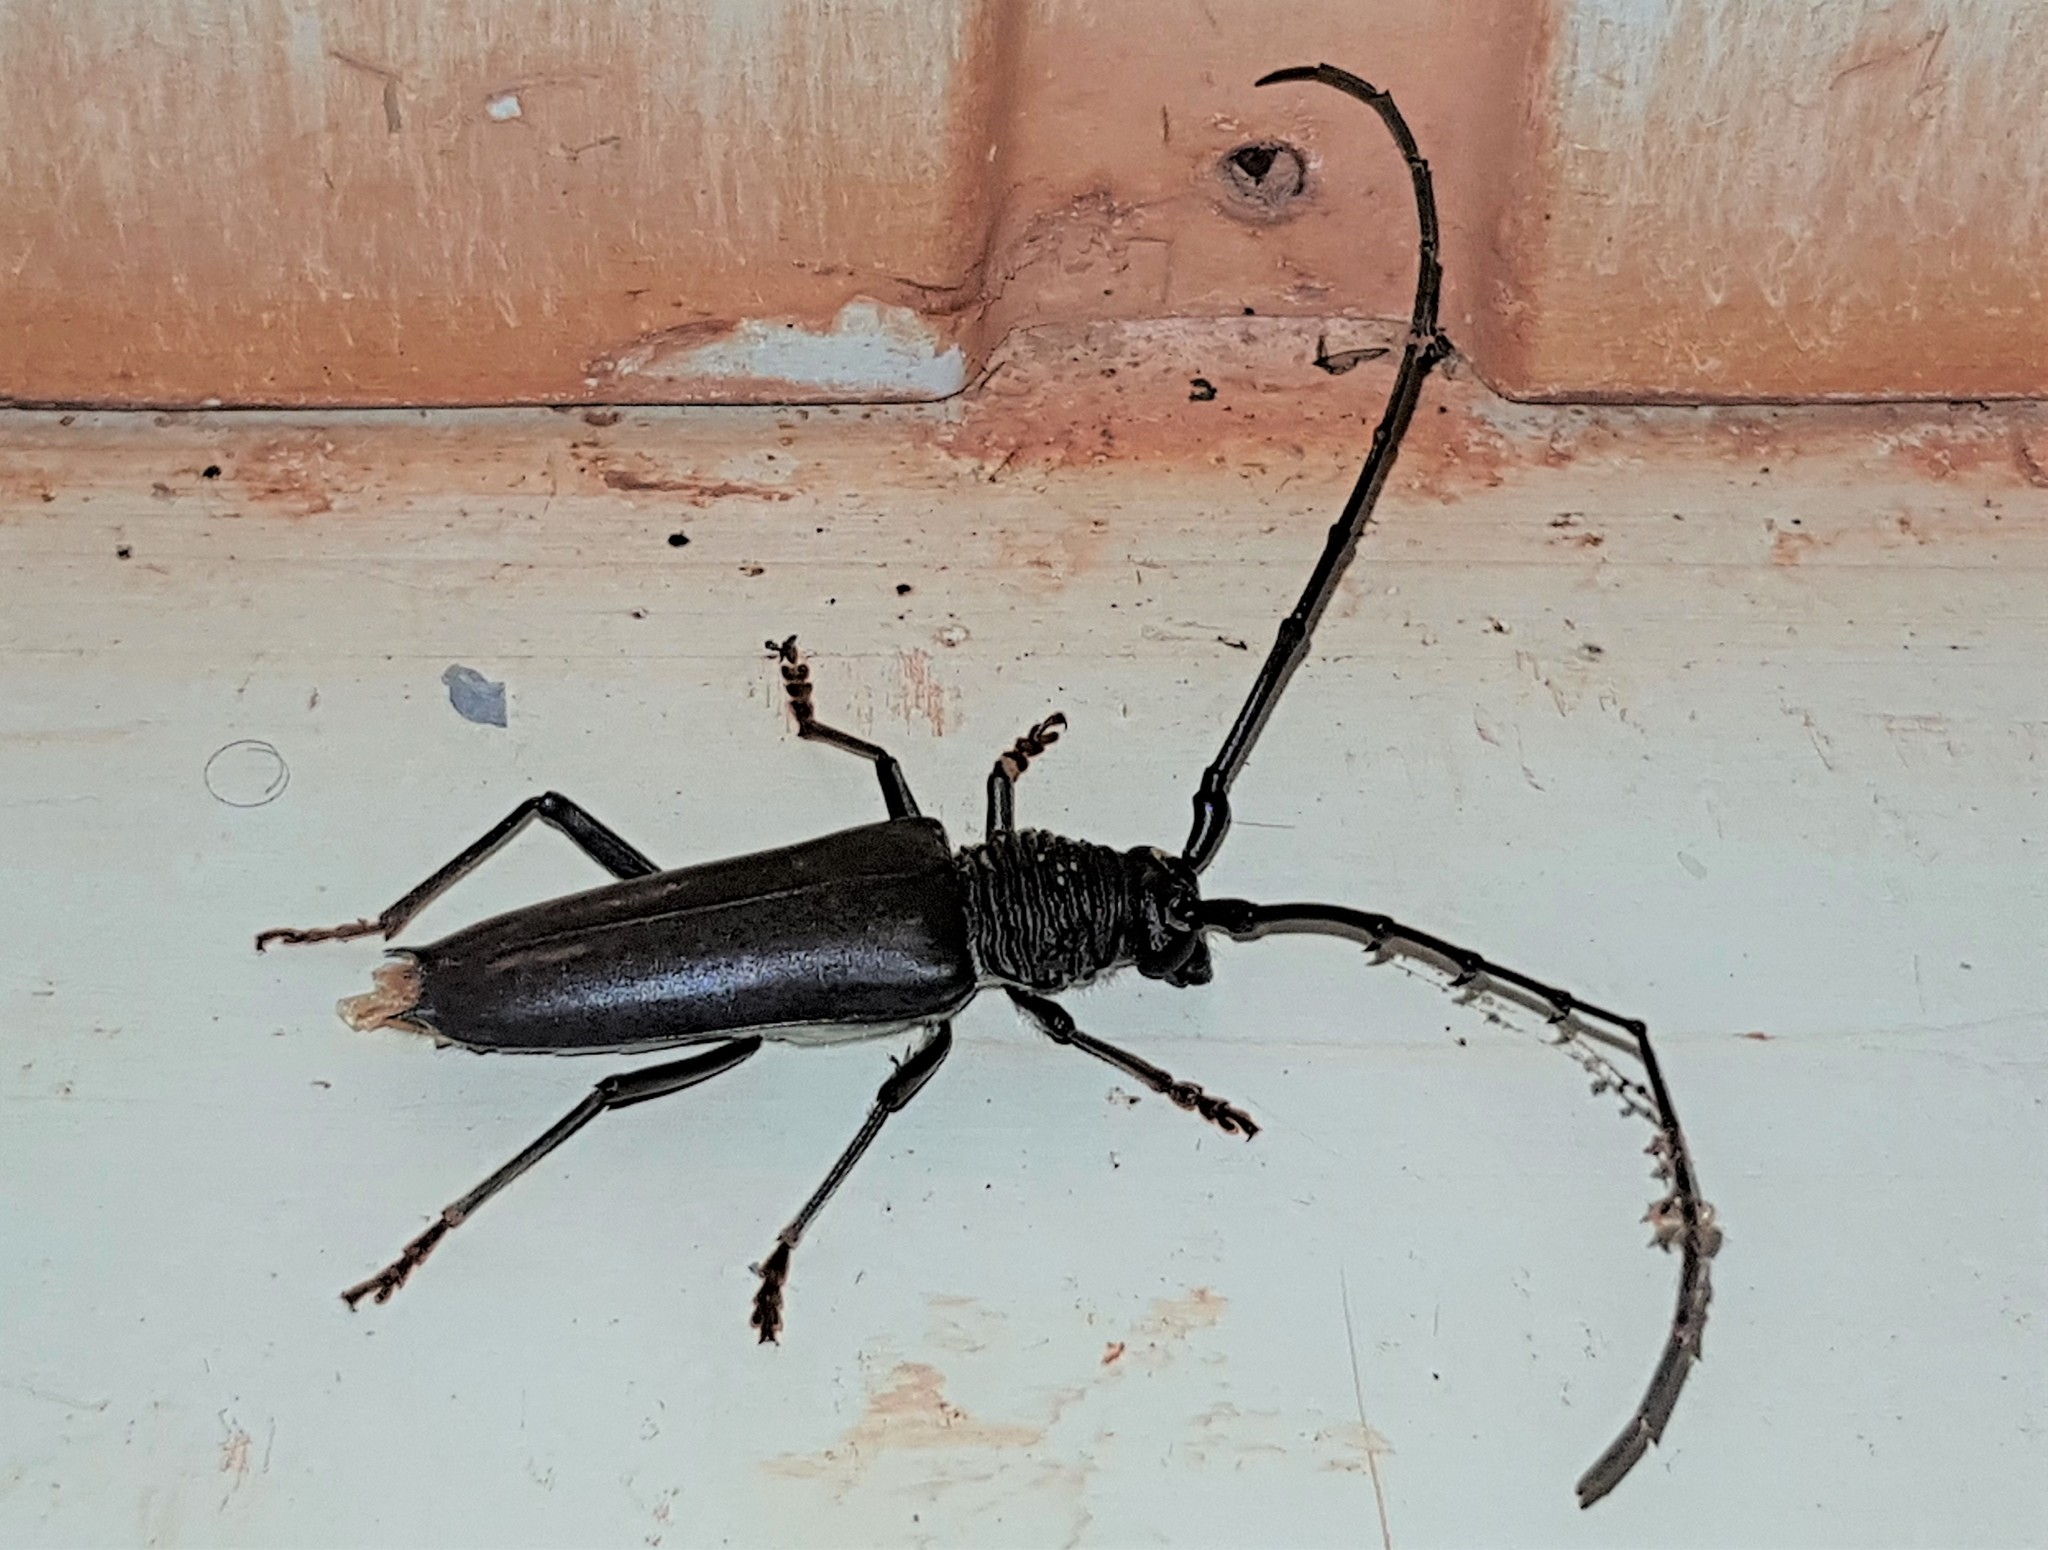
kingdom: Animalia
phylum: Arthropoda
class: Insecta
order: Coleoptera
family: Cerambycidae
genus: Juiaparus
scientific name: Juiaparus batus
